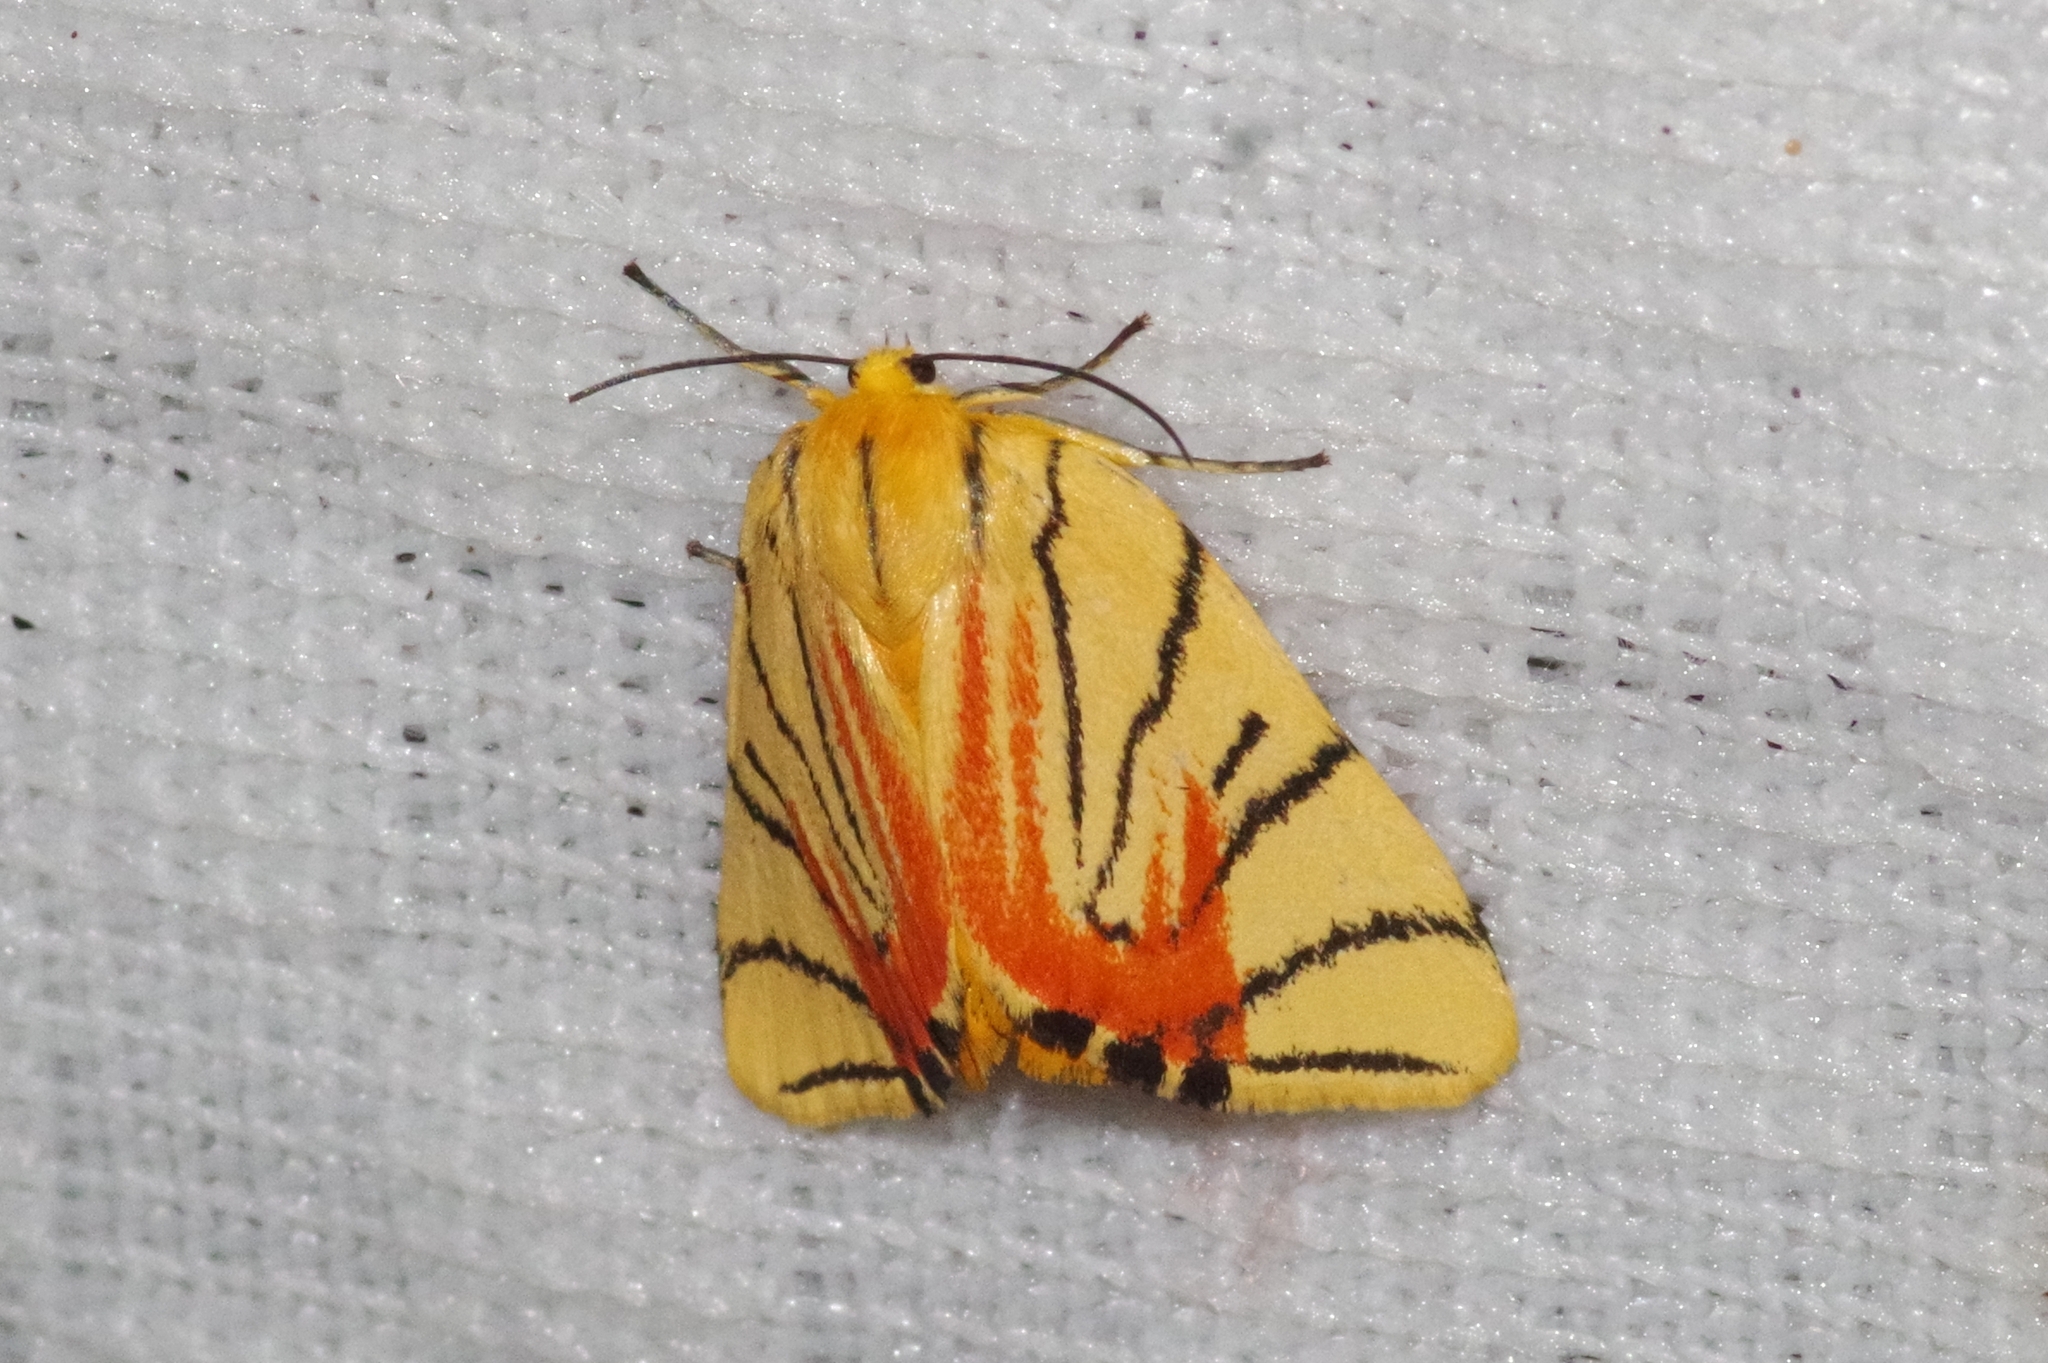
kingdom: Animalia
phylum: Arthropoda
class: Insecta
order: Lepidoptera
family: Erebidae
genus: Camptoloma
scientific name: Camptoloma interiorata
